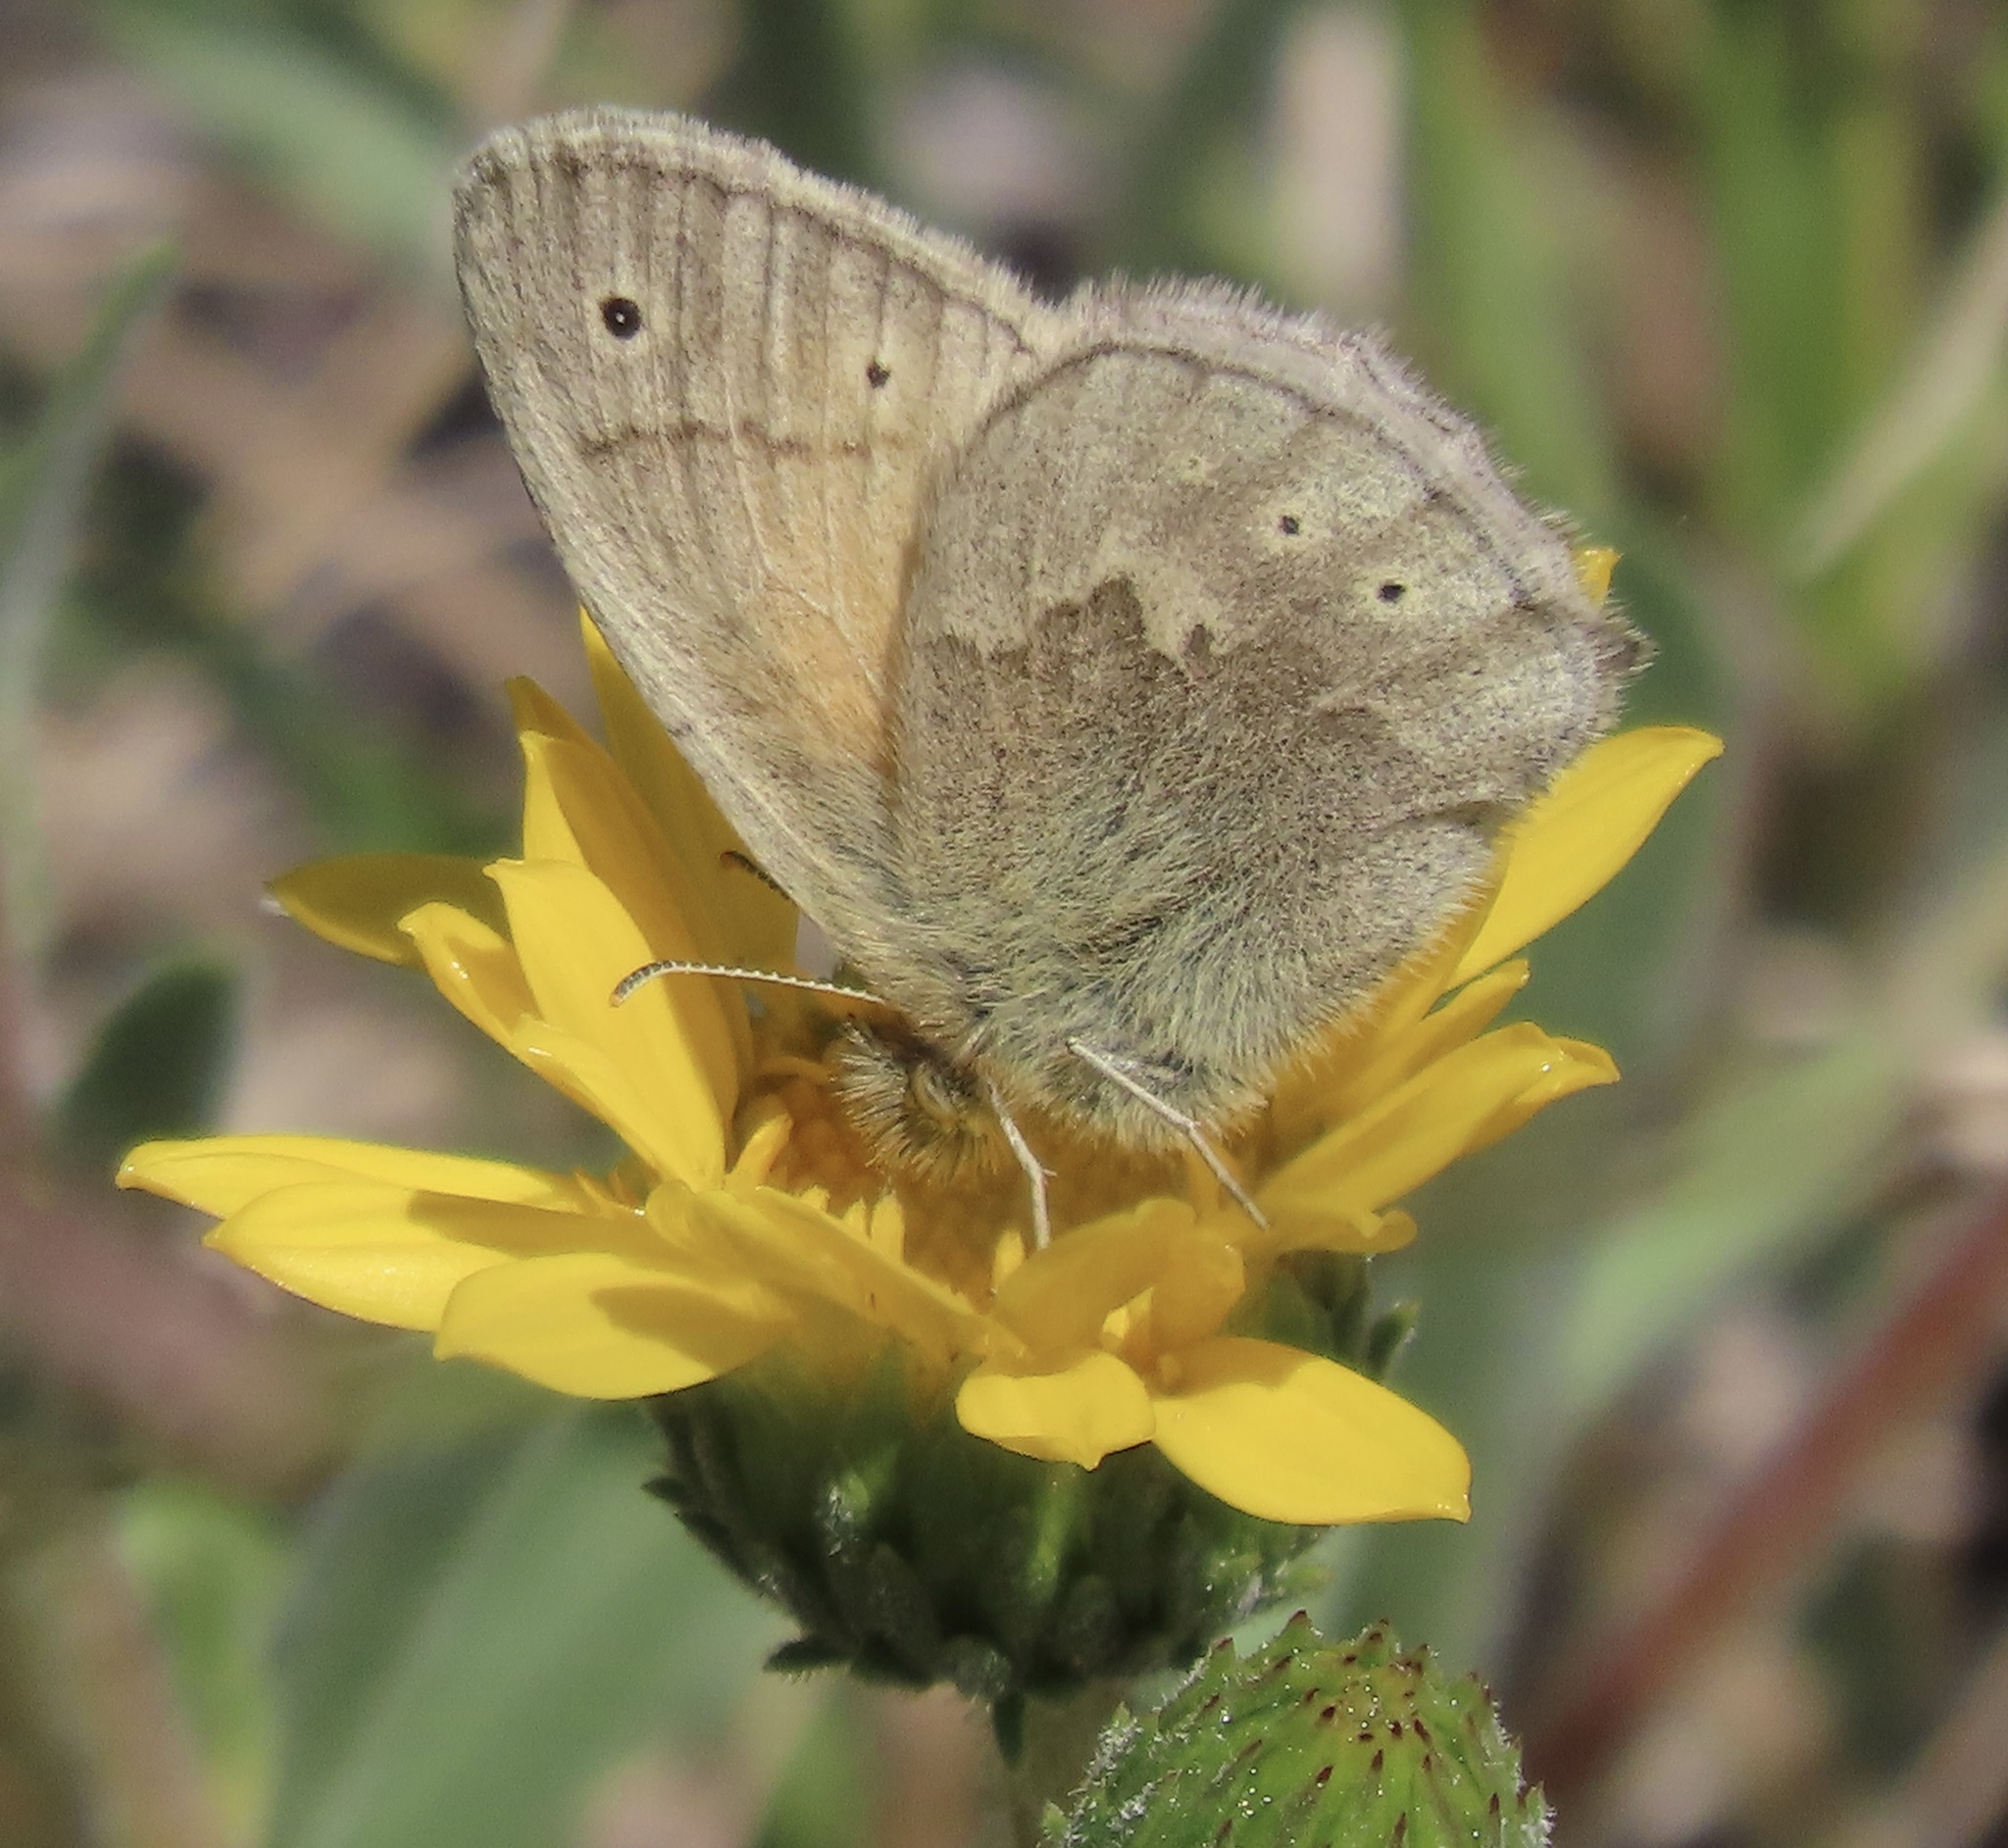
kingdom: Animalia
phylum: Arthropoda
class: Insecta
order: Lepidoptera
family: Nymphalidae
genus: Coenonympha
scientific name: Coenonympha california
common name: Common ringlet
